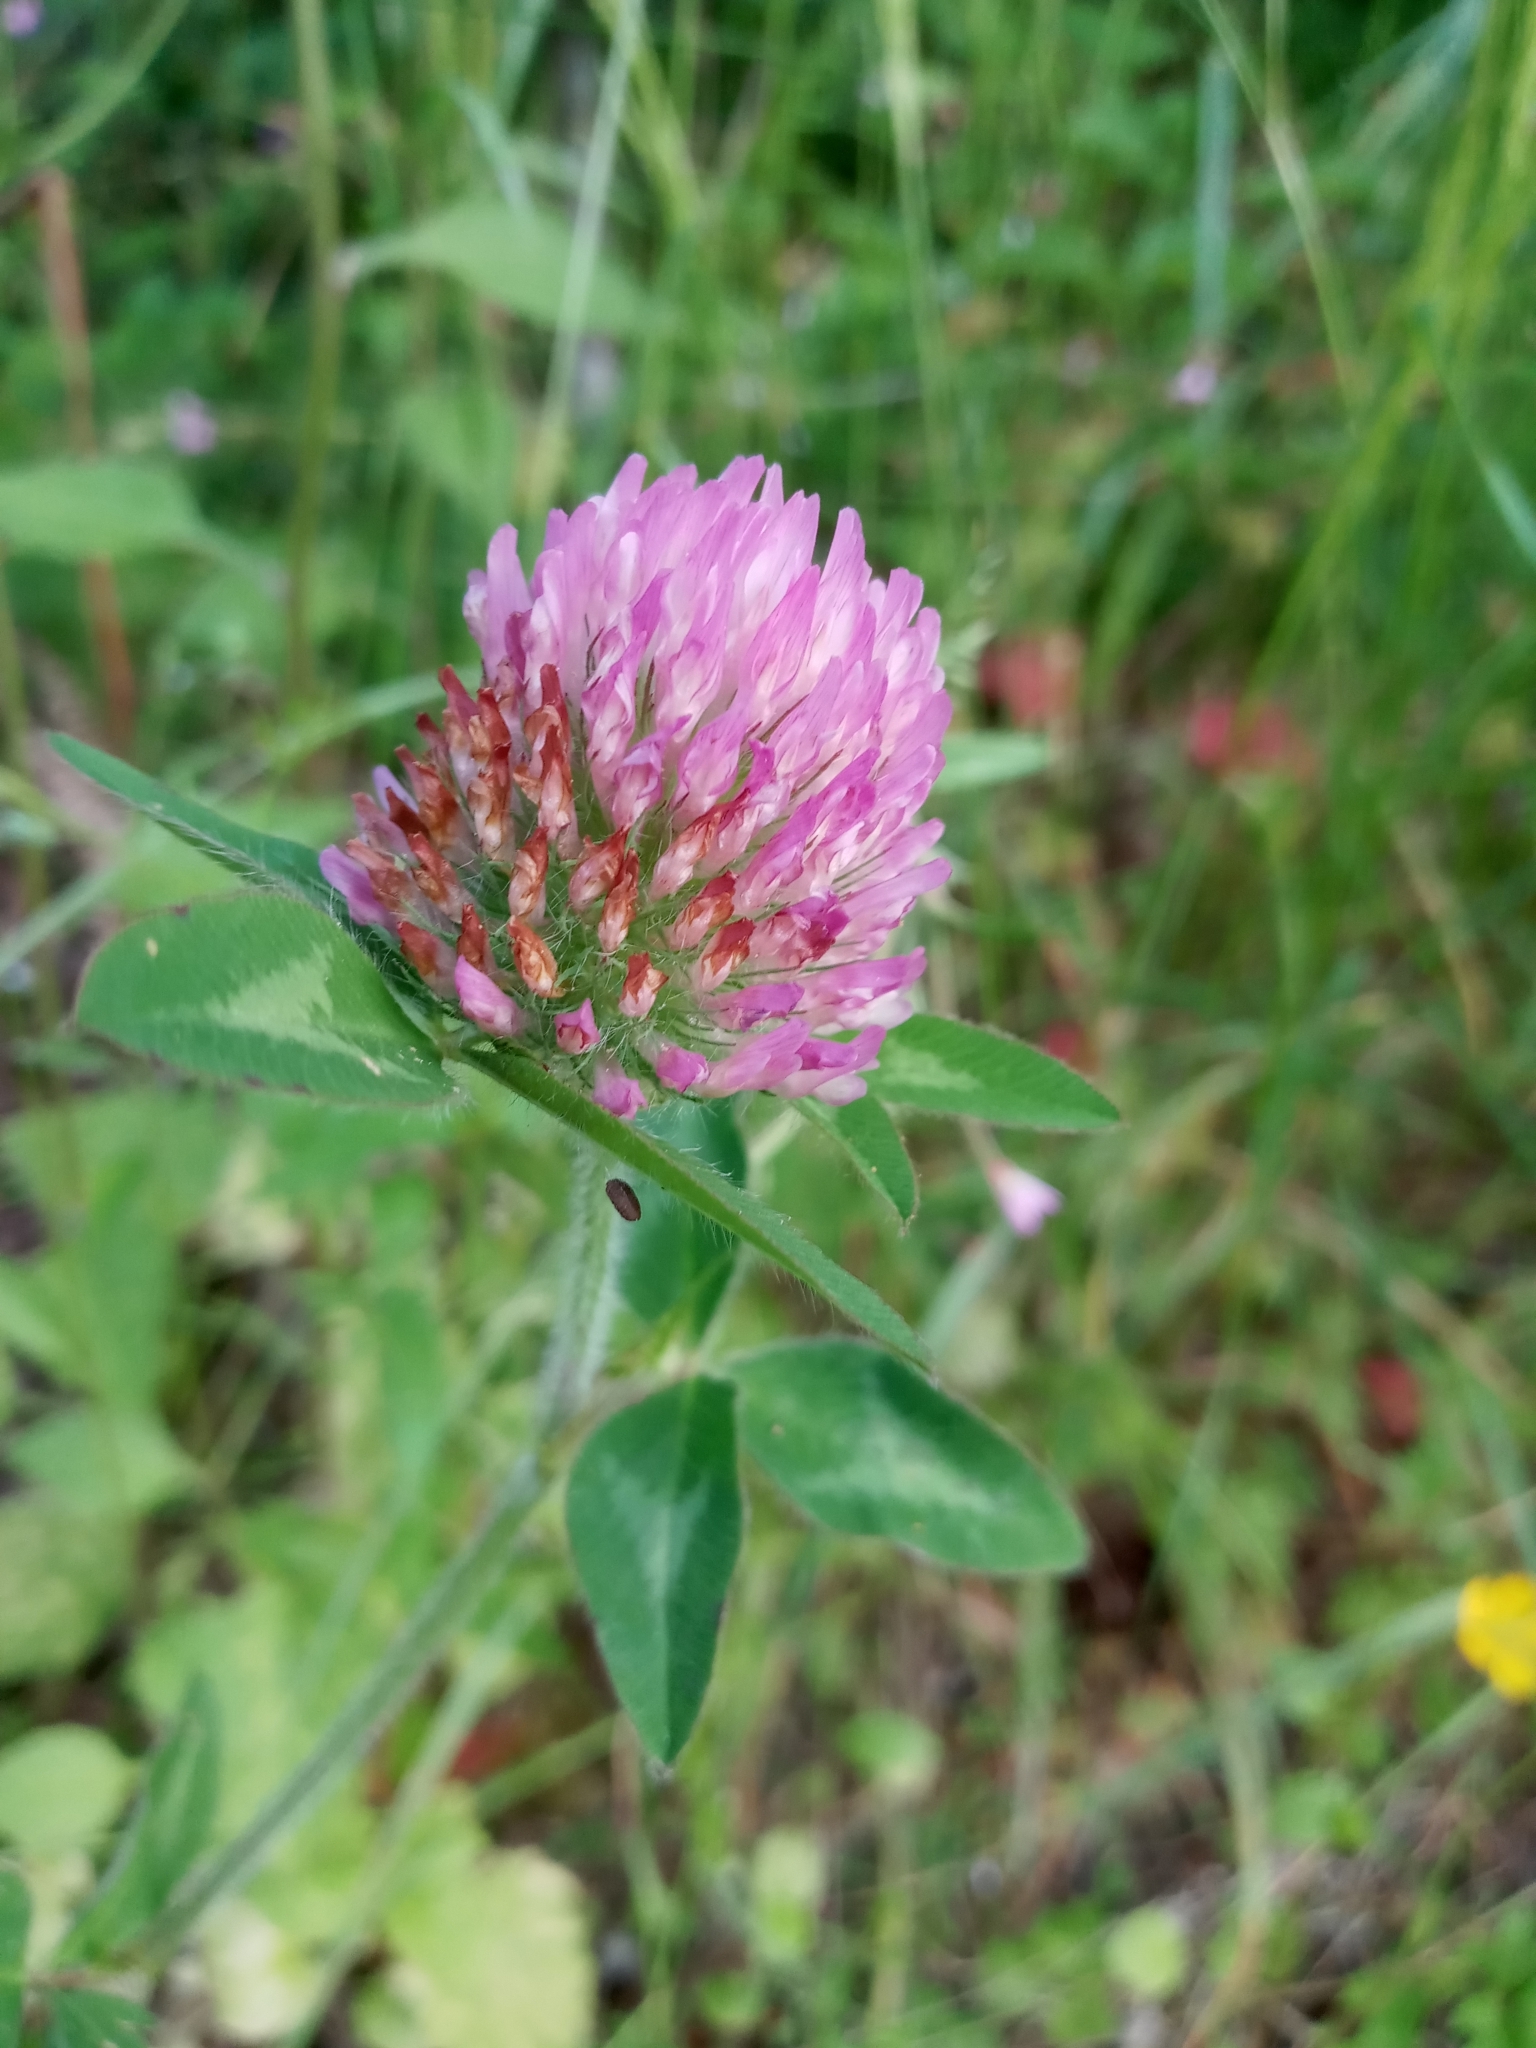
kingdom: Plantae
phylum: Tracheophyta
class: Magnoliopsida
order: Fabales
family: Fabaceae
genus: Trifolium
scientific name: Trifolium pratense
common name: Red clover
